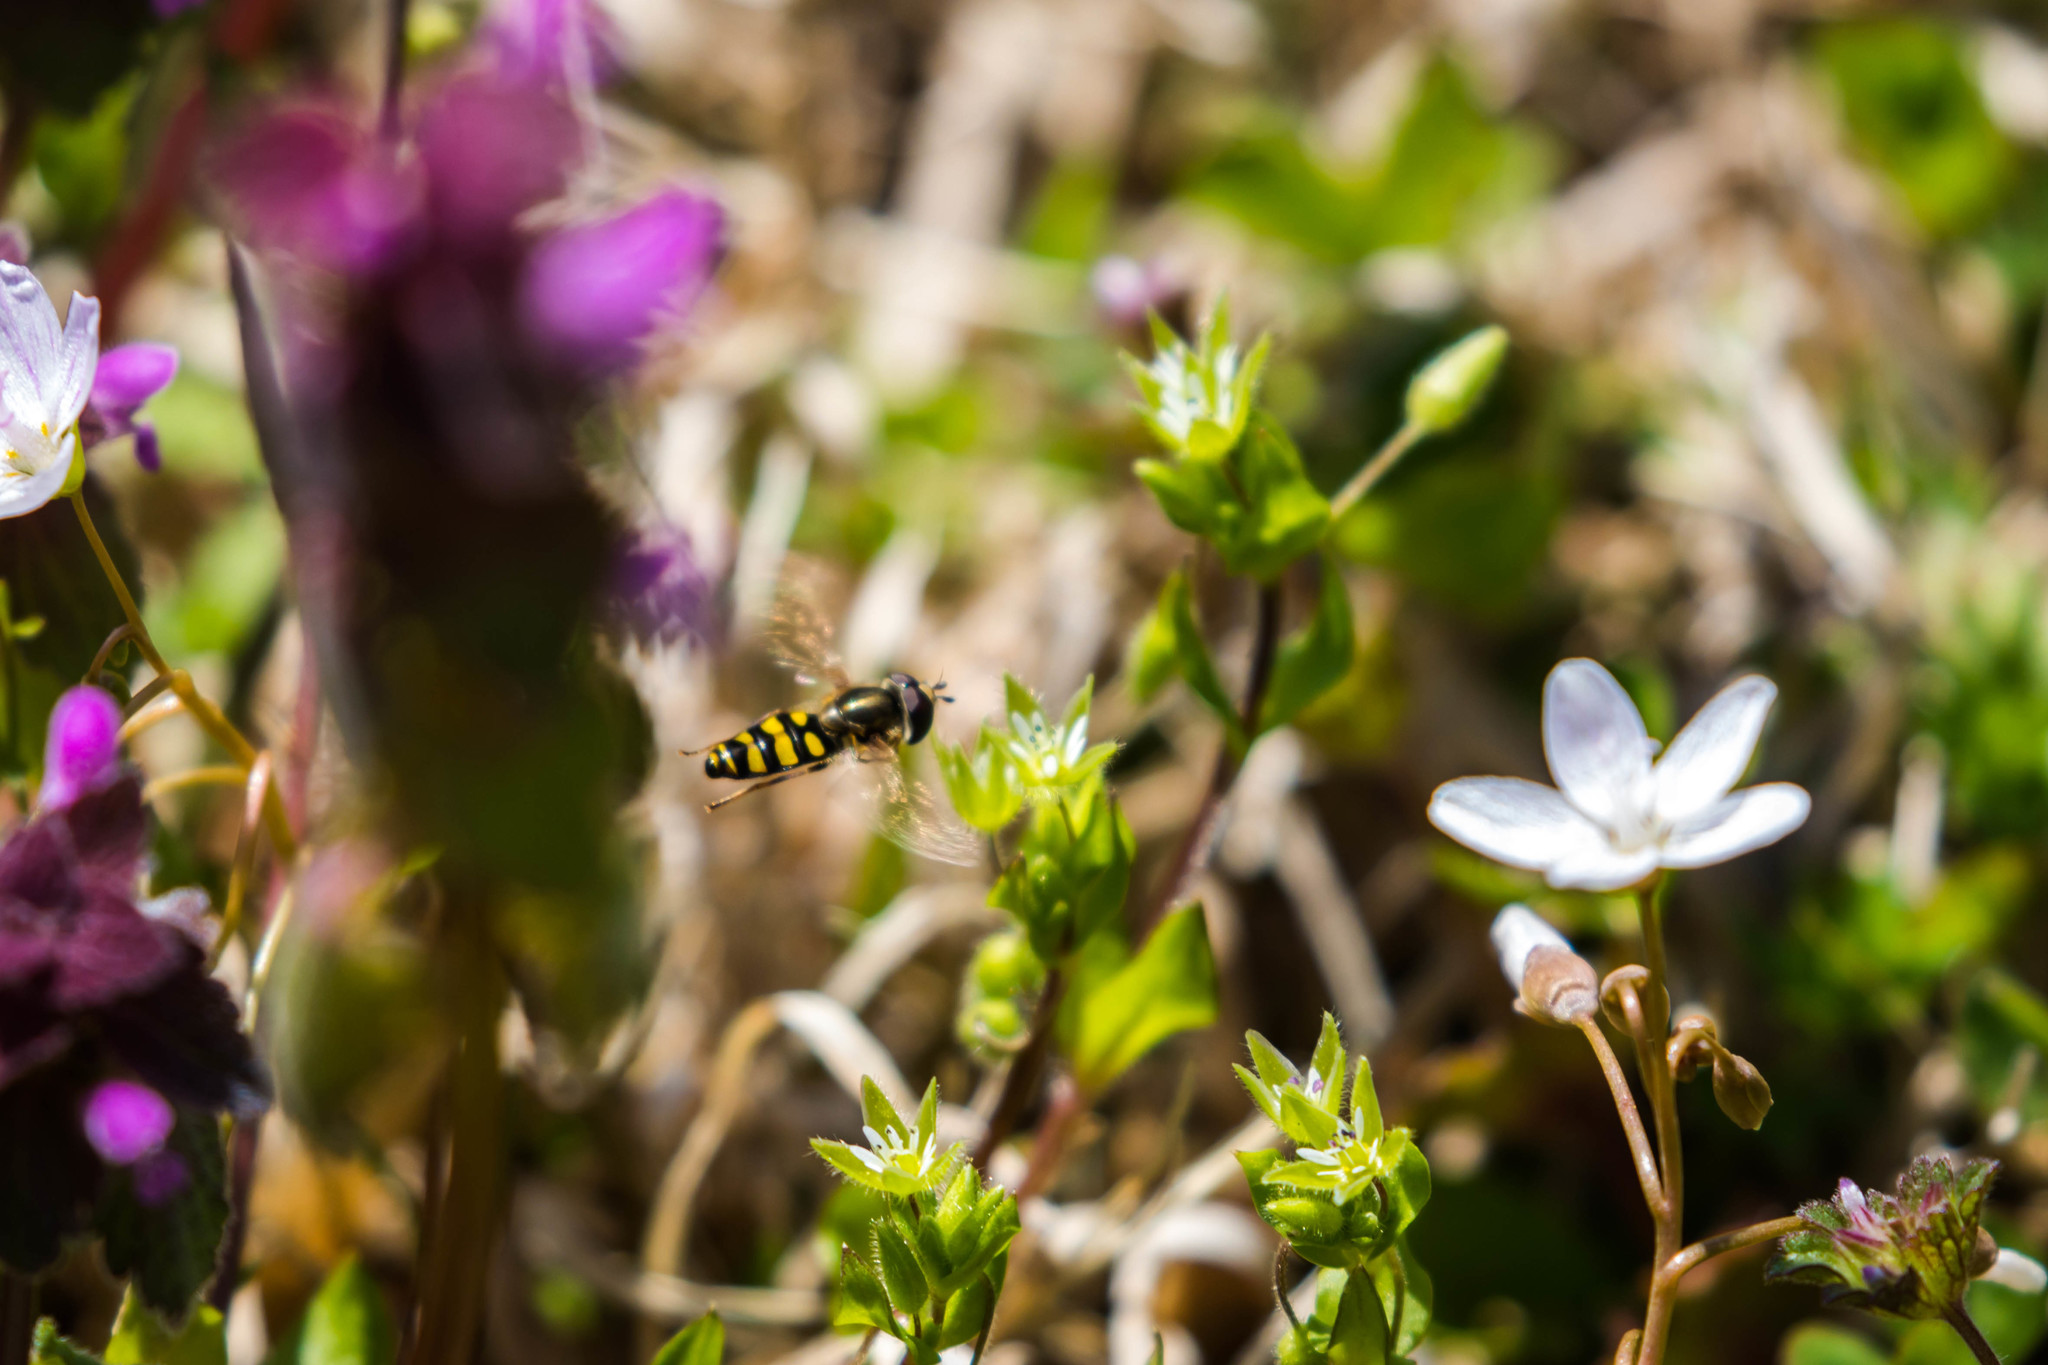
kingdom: Animalia
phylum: Arthropoda
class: Insecta
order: Diptera
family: Syrphidae
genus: Eupeodes
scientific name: Eupeodes
